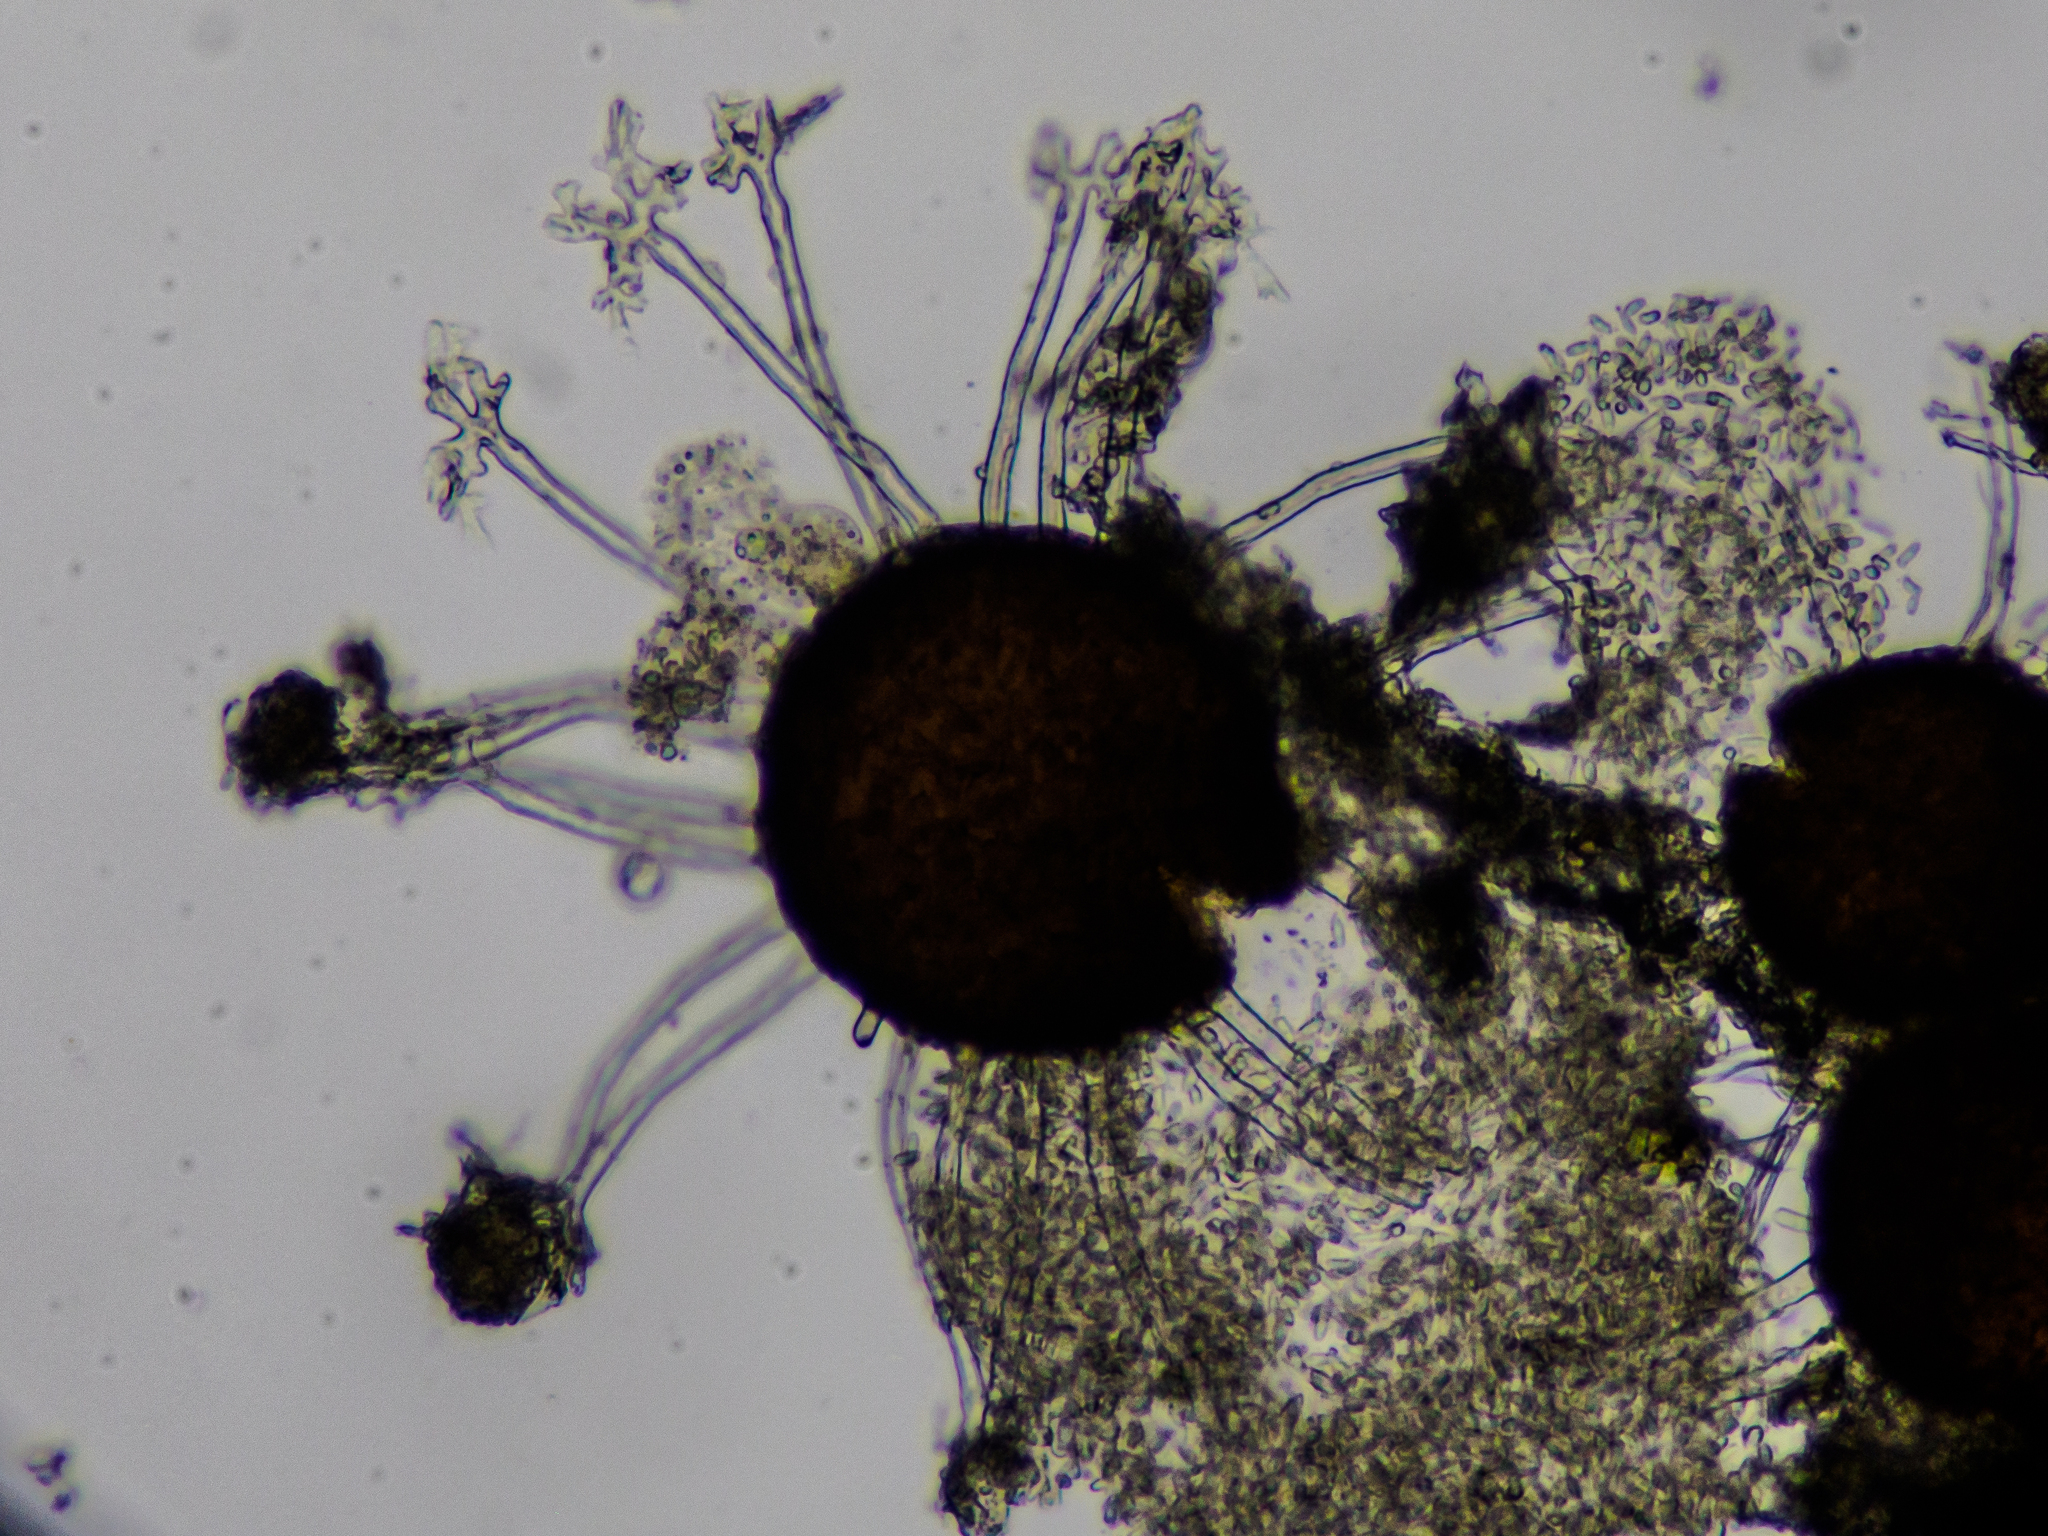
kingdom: Fungi
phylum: Ascomycota
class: Leotiomycetes
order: Helotiales
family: Erysiphaceae
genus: Erysiphe
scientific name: Erysiphe sambuci
